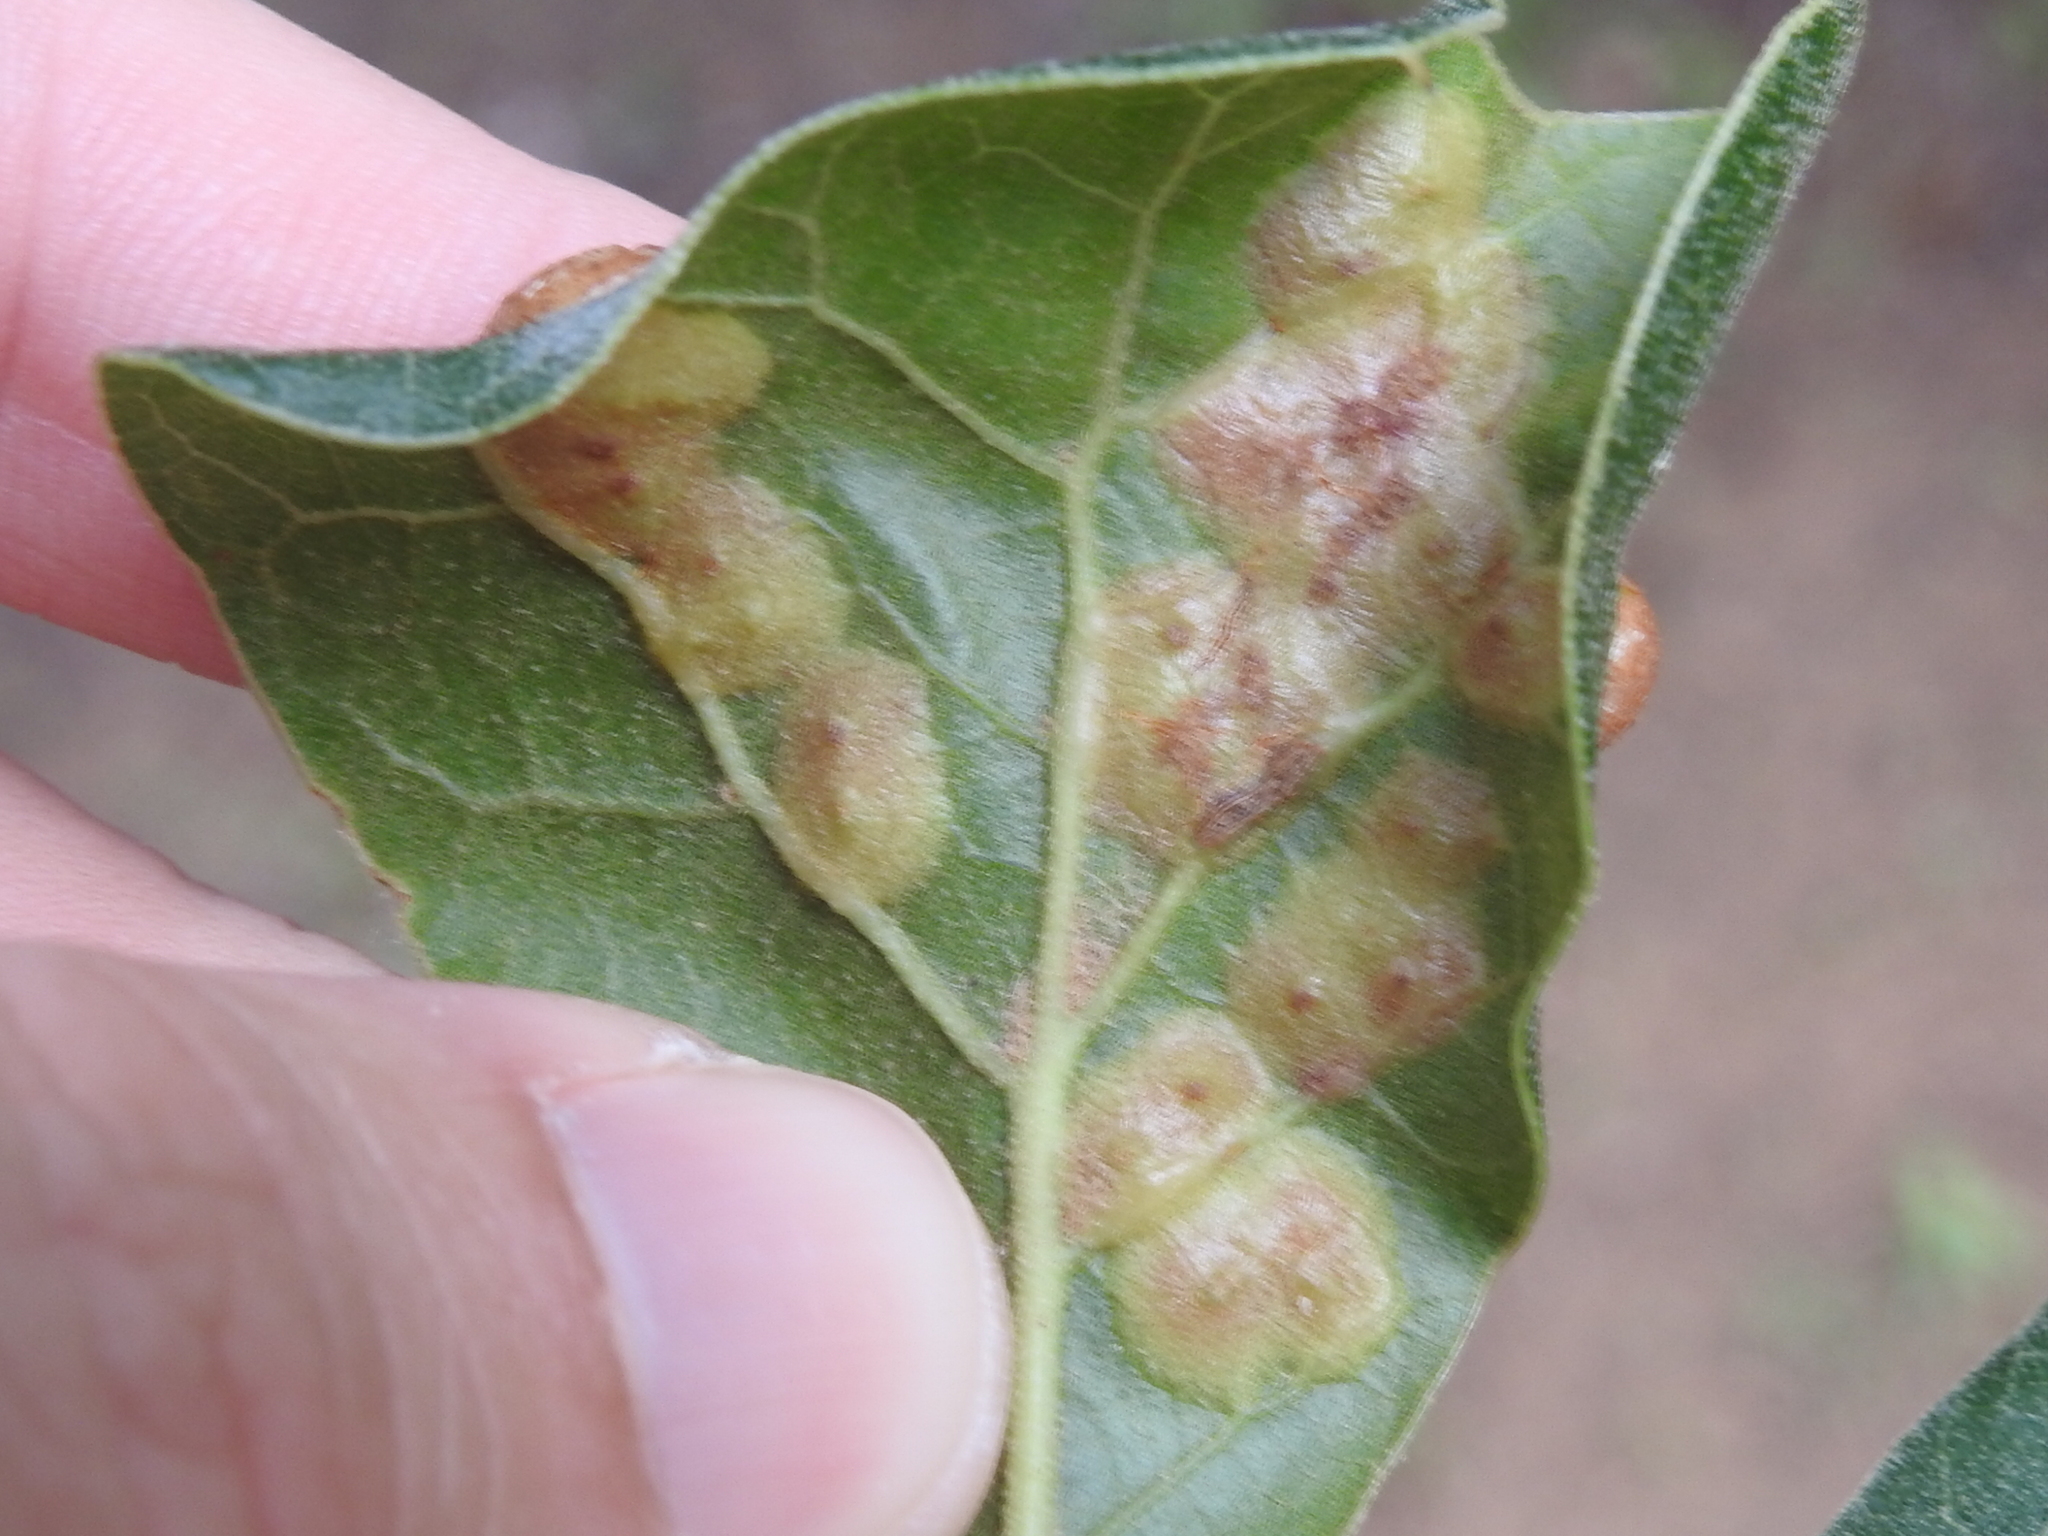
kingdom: Animalia
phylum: Arthropoda
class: Insecta
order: Diptera
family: Cecidomyiidae
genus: Polystepha
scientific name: Polystepha pilulae
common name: Oak leaf gall midge
